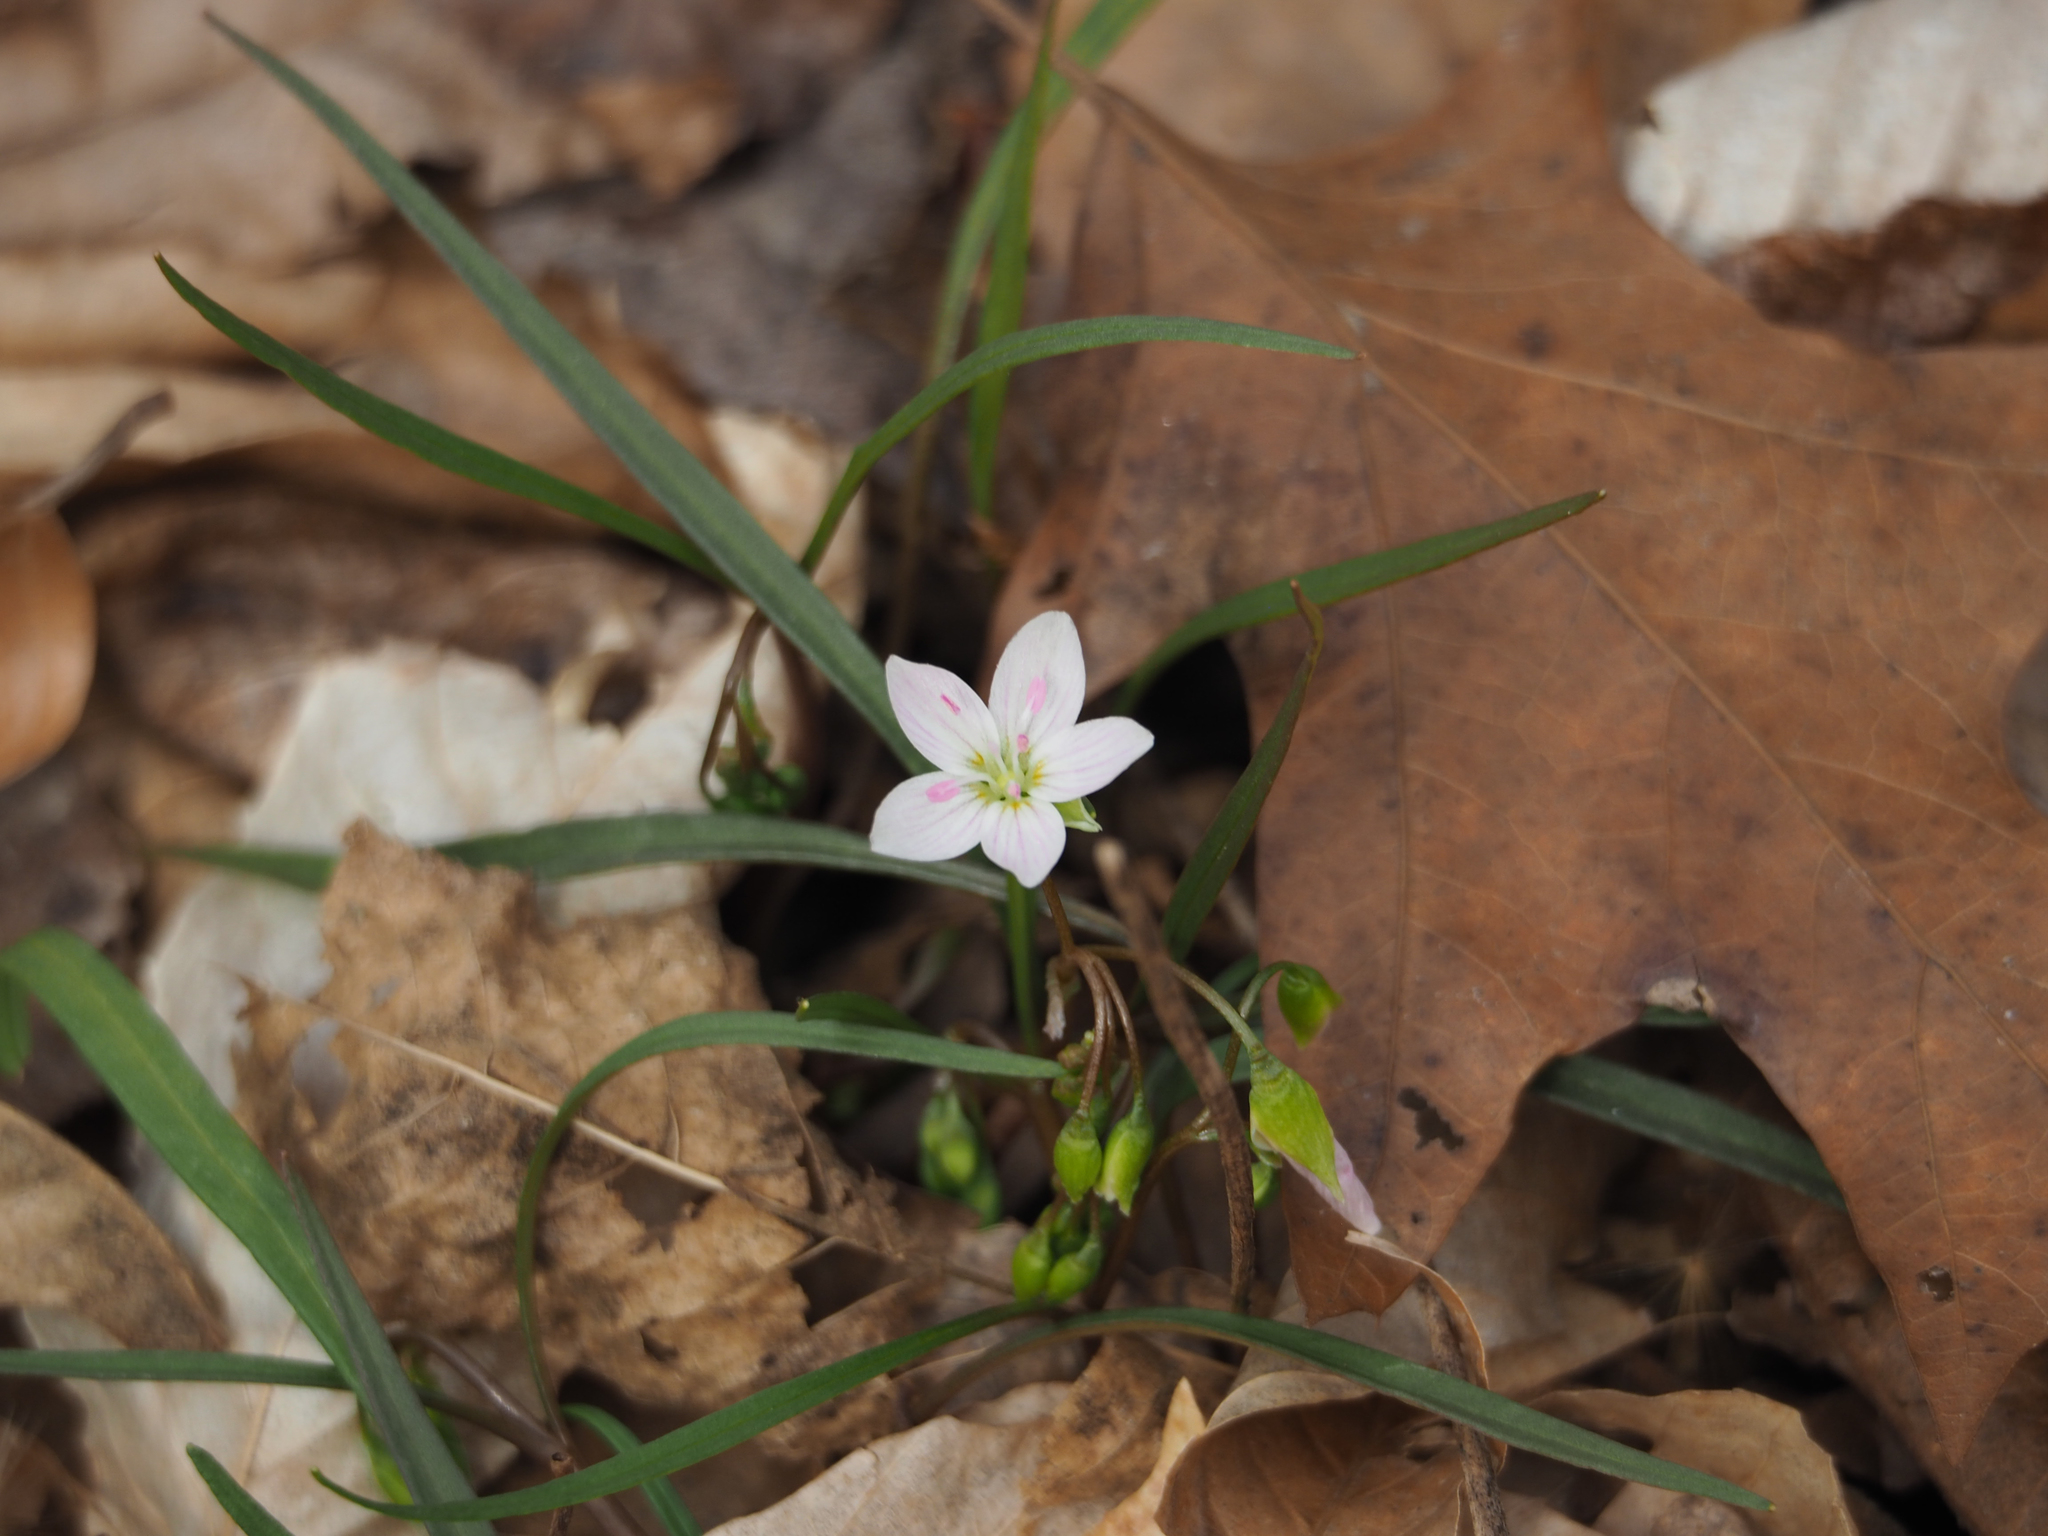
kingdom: Plantae
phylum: Tracheophyta
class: Magnoliopsida
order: Caryophyllales
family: Montiaceae
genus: Claytonia
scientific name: Claytonia virginica
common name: Virginia springbeauty
